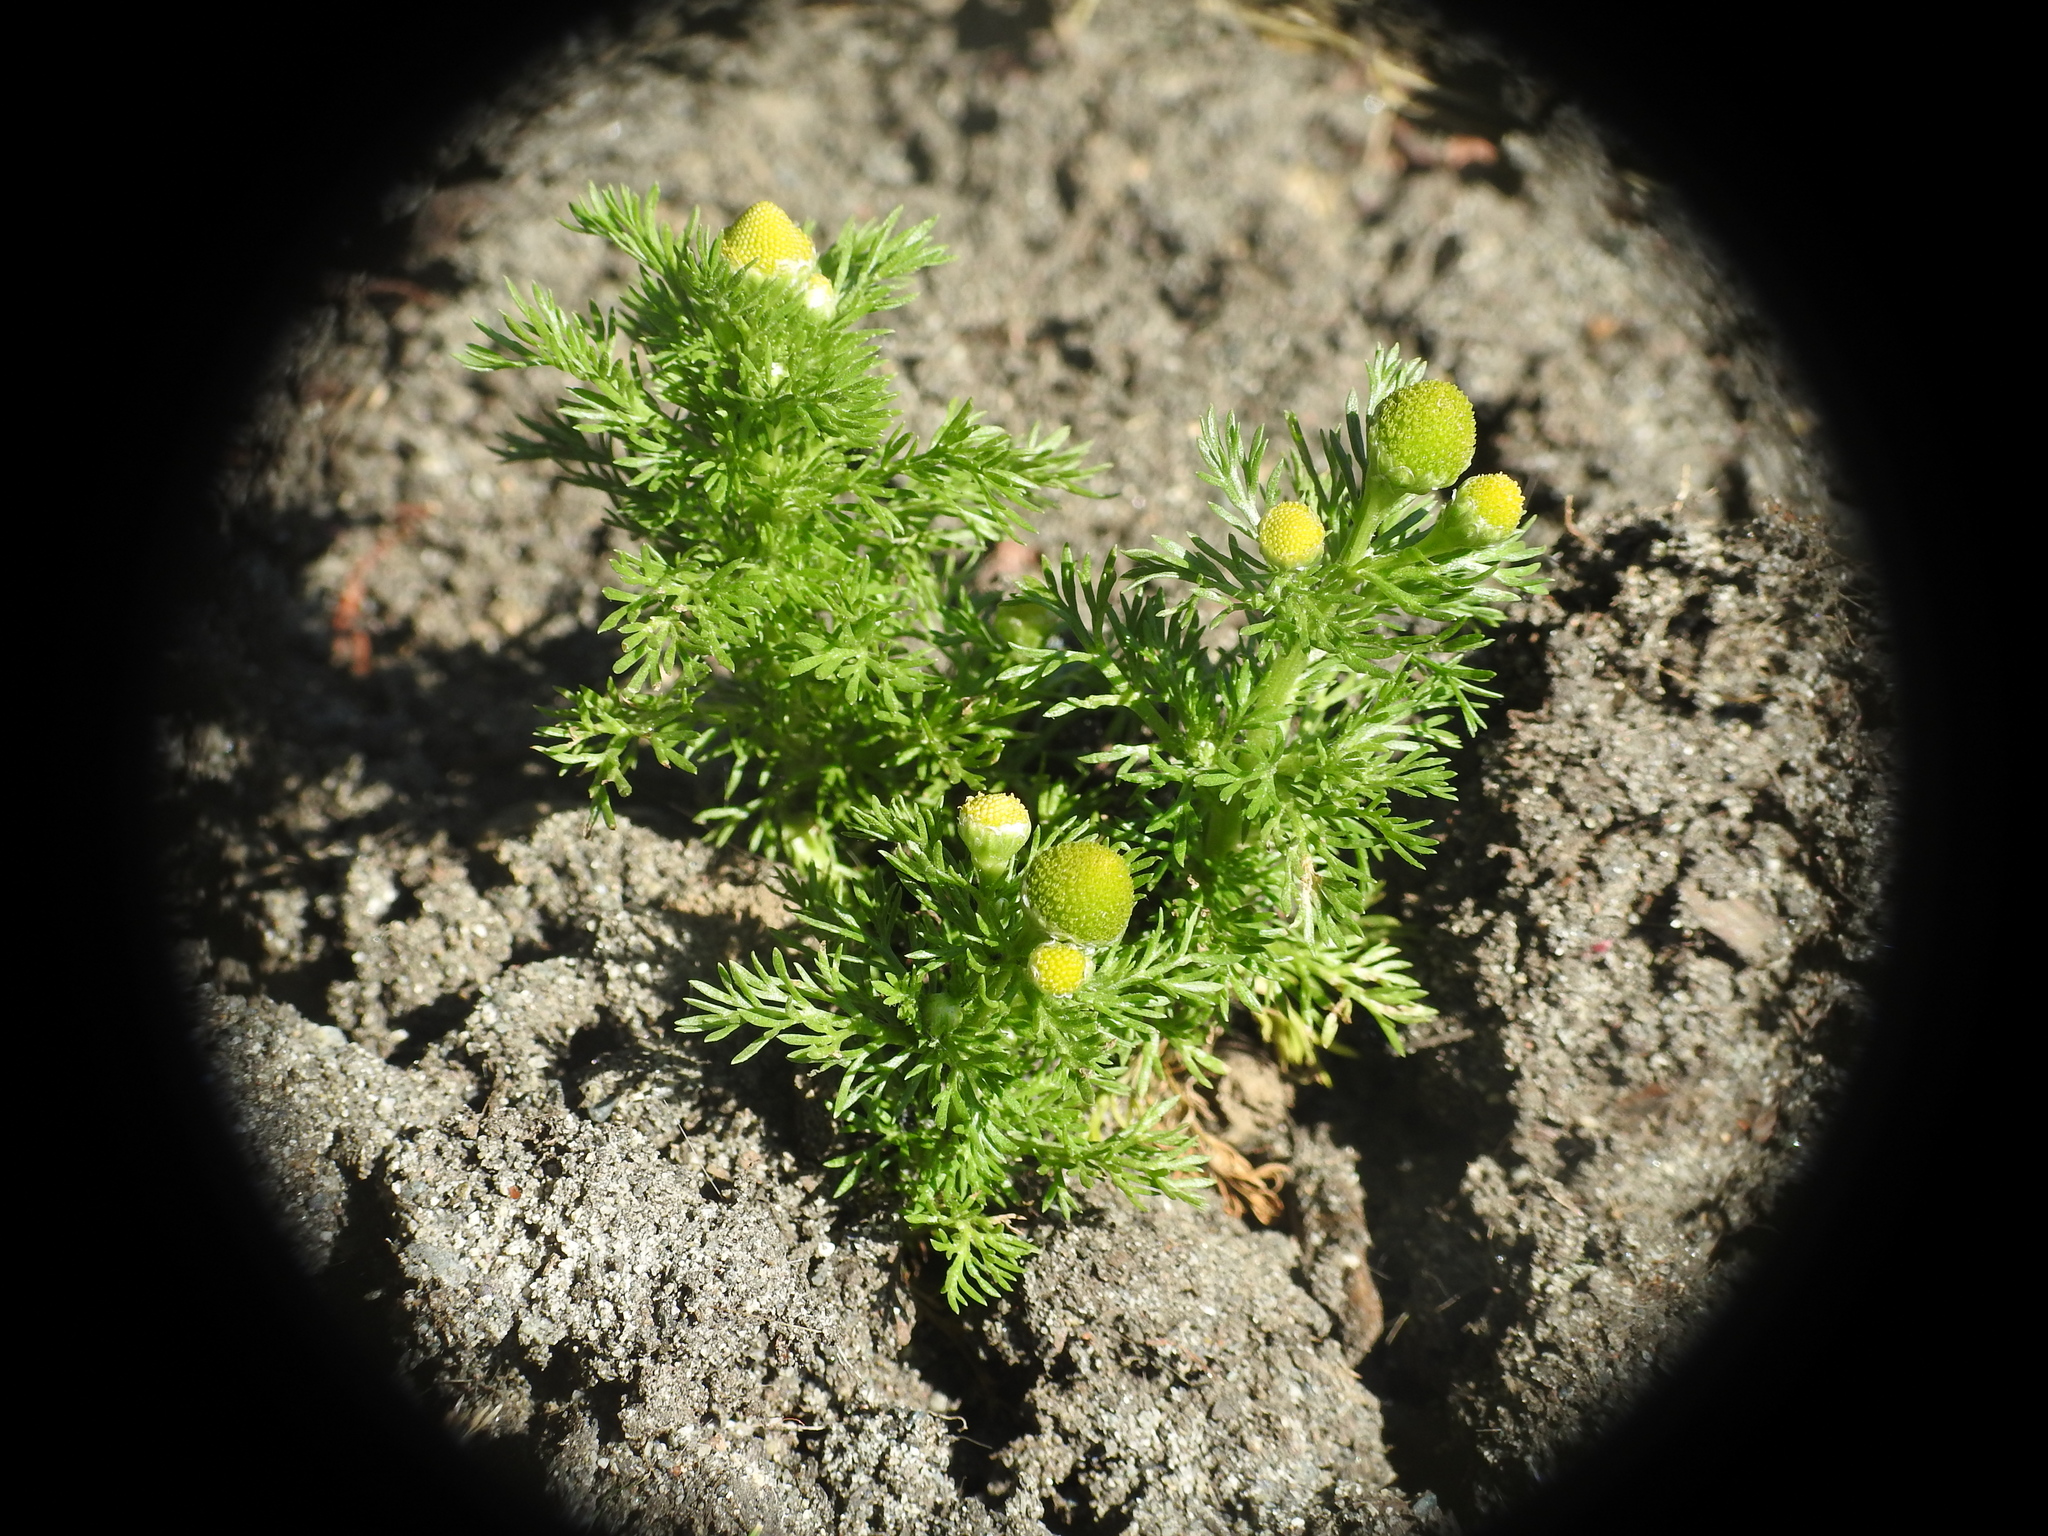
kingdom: Plantae
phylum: Tracheophyta
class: Magnoliopsida
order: Asterales
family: Asteraceae
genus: Matricaria
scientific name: Matricaria discoidea
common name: Disc mayweed
